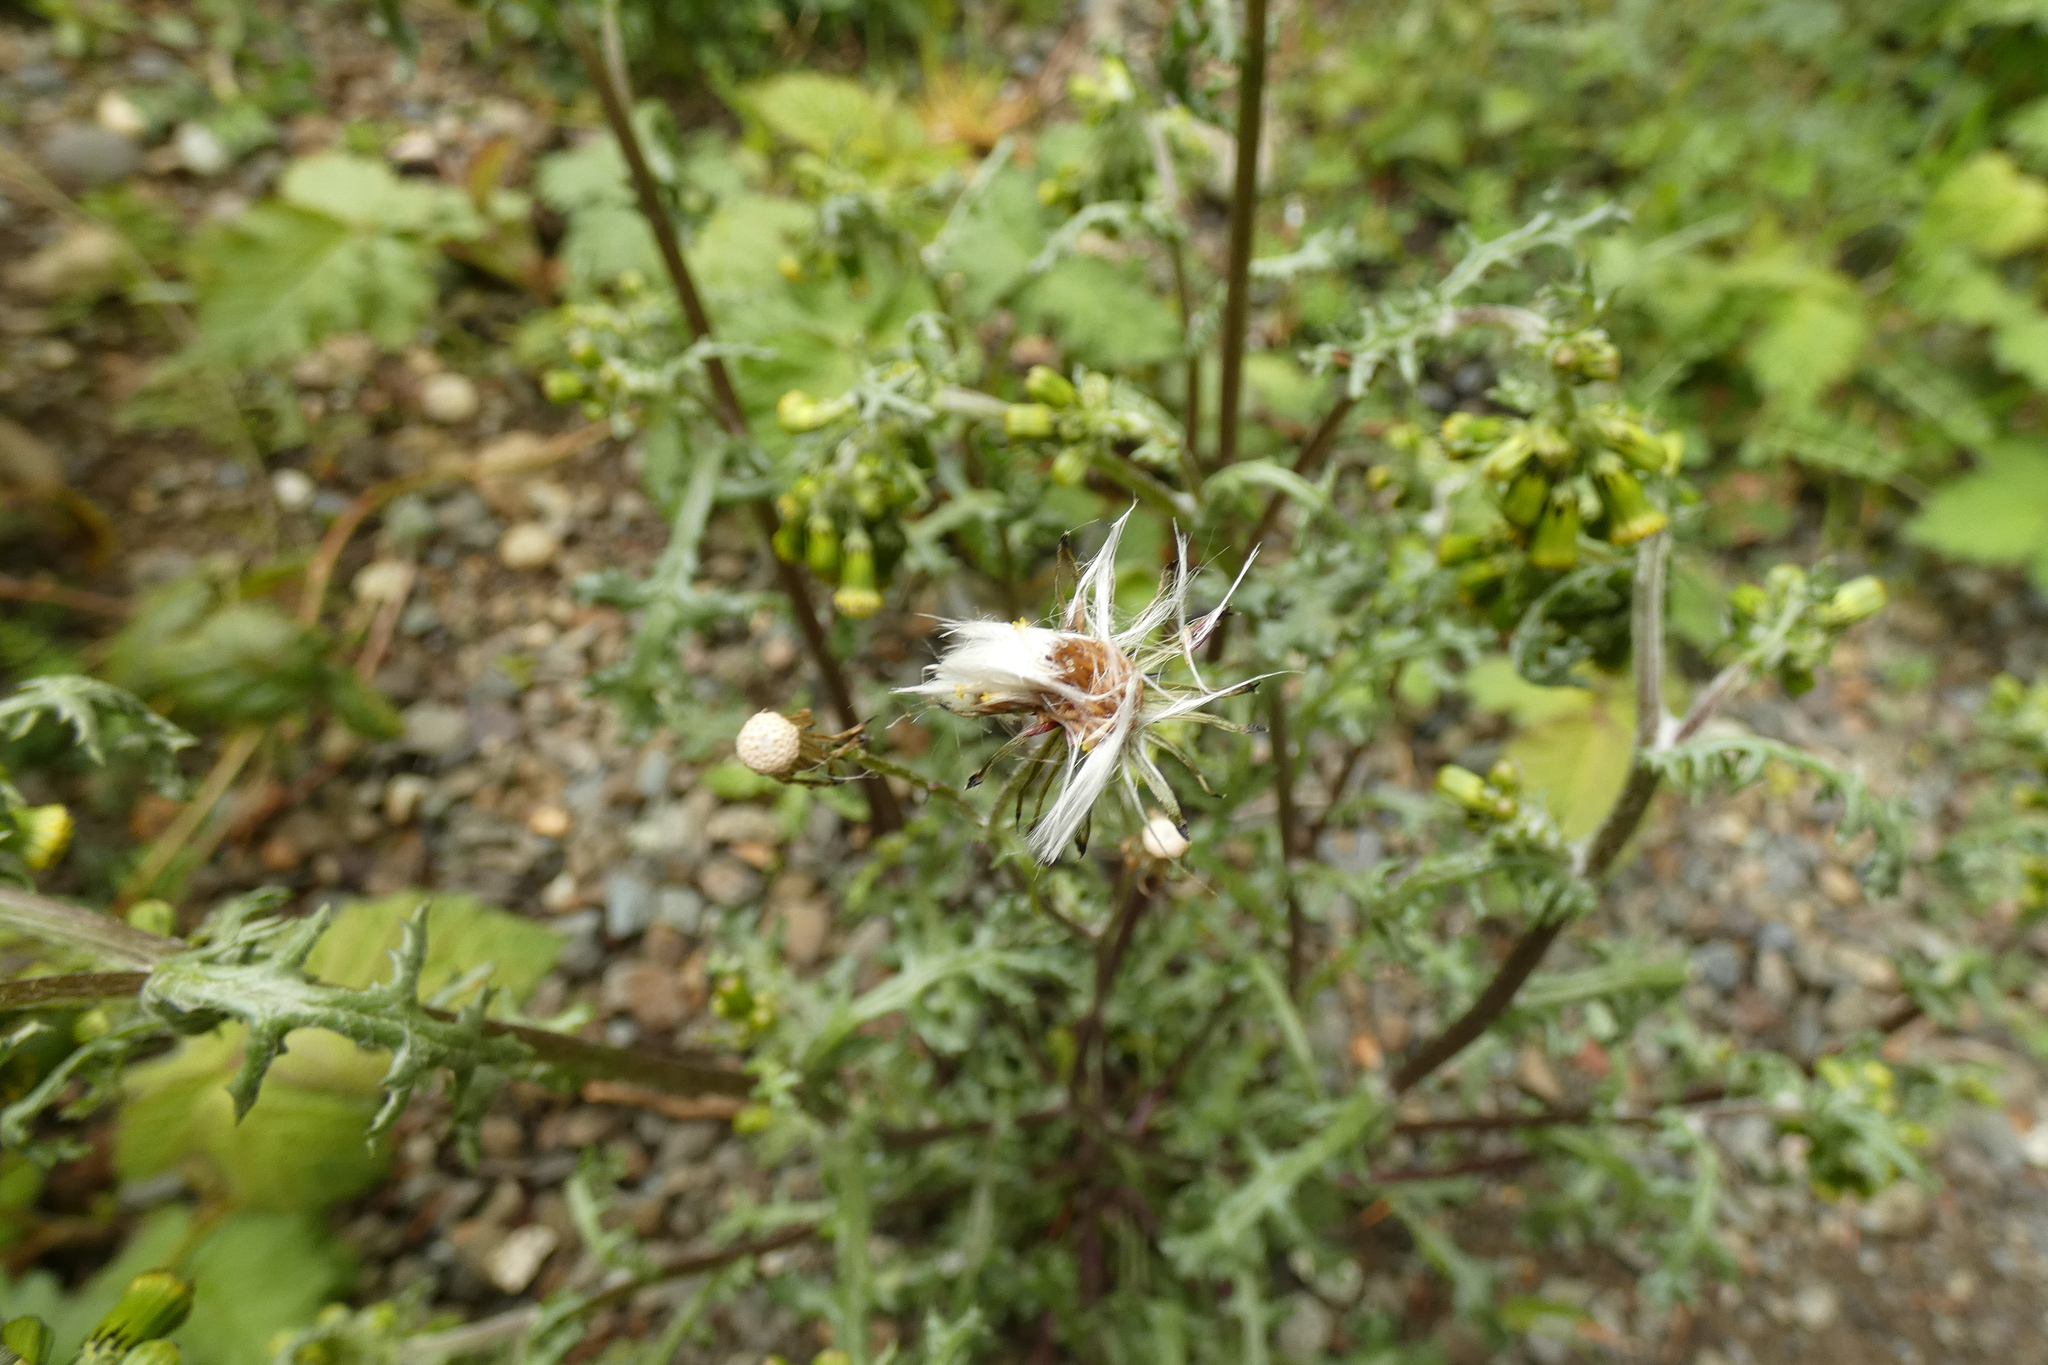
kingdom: Plantae
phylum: Tracheophyta
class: Magnoliopsida
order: Asterales
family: Asteraceae
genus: Senecio
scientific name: Senecio vulgaris
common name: Old-man-in-the-spring
